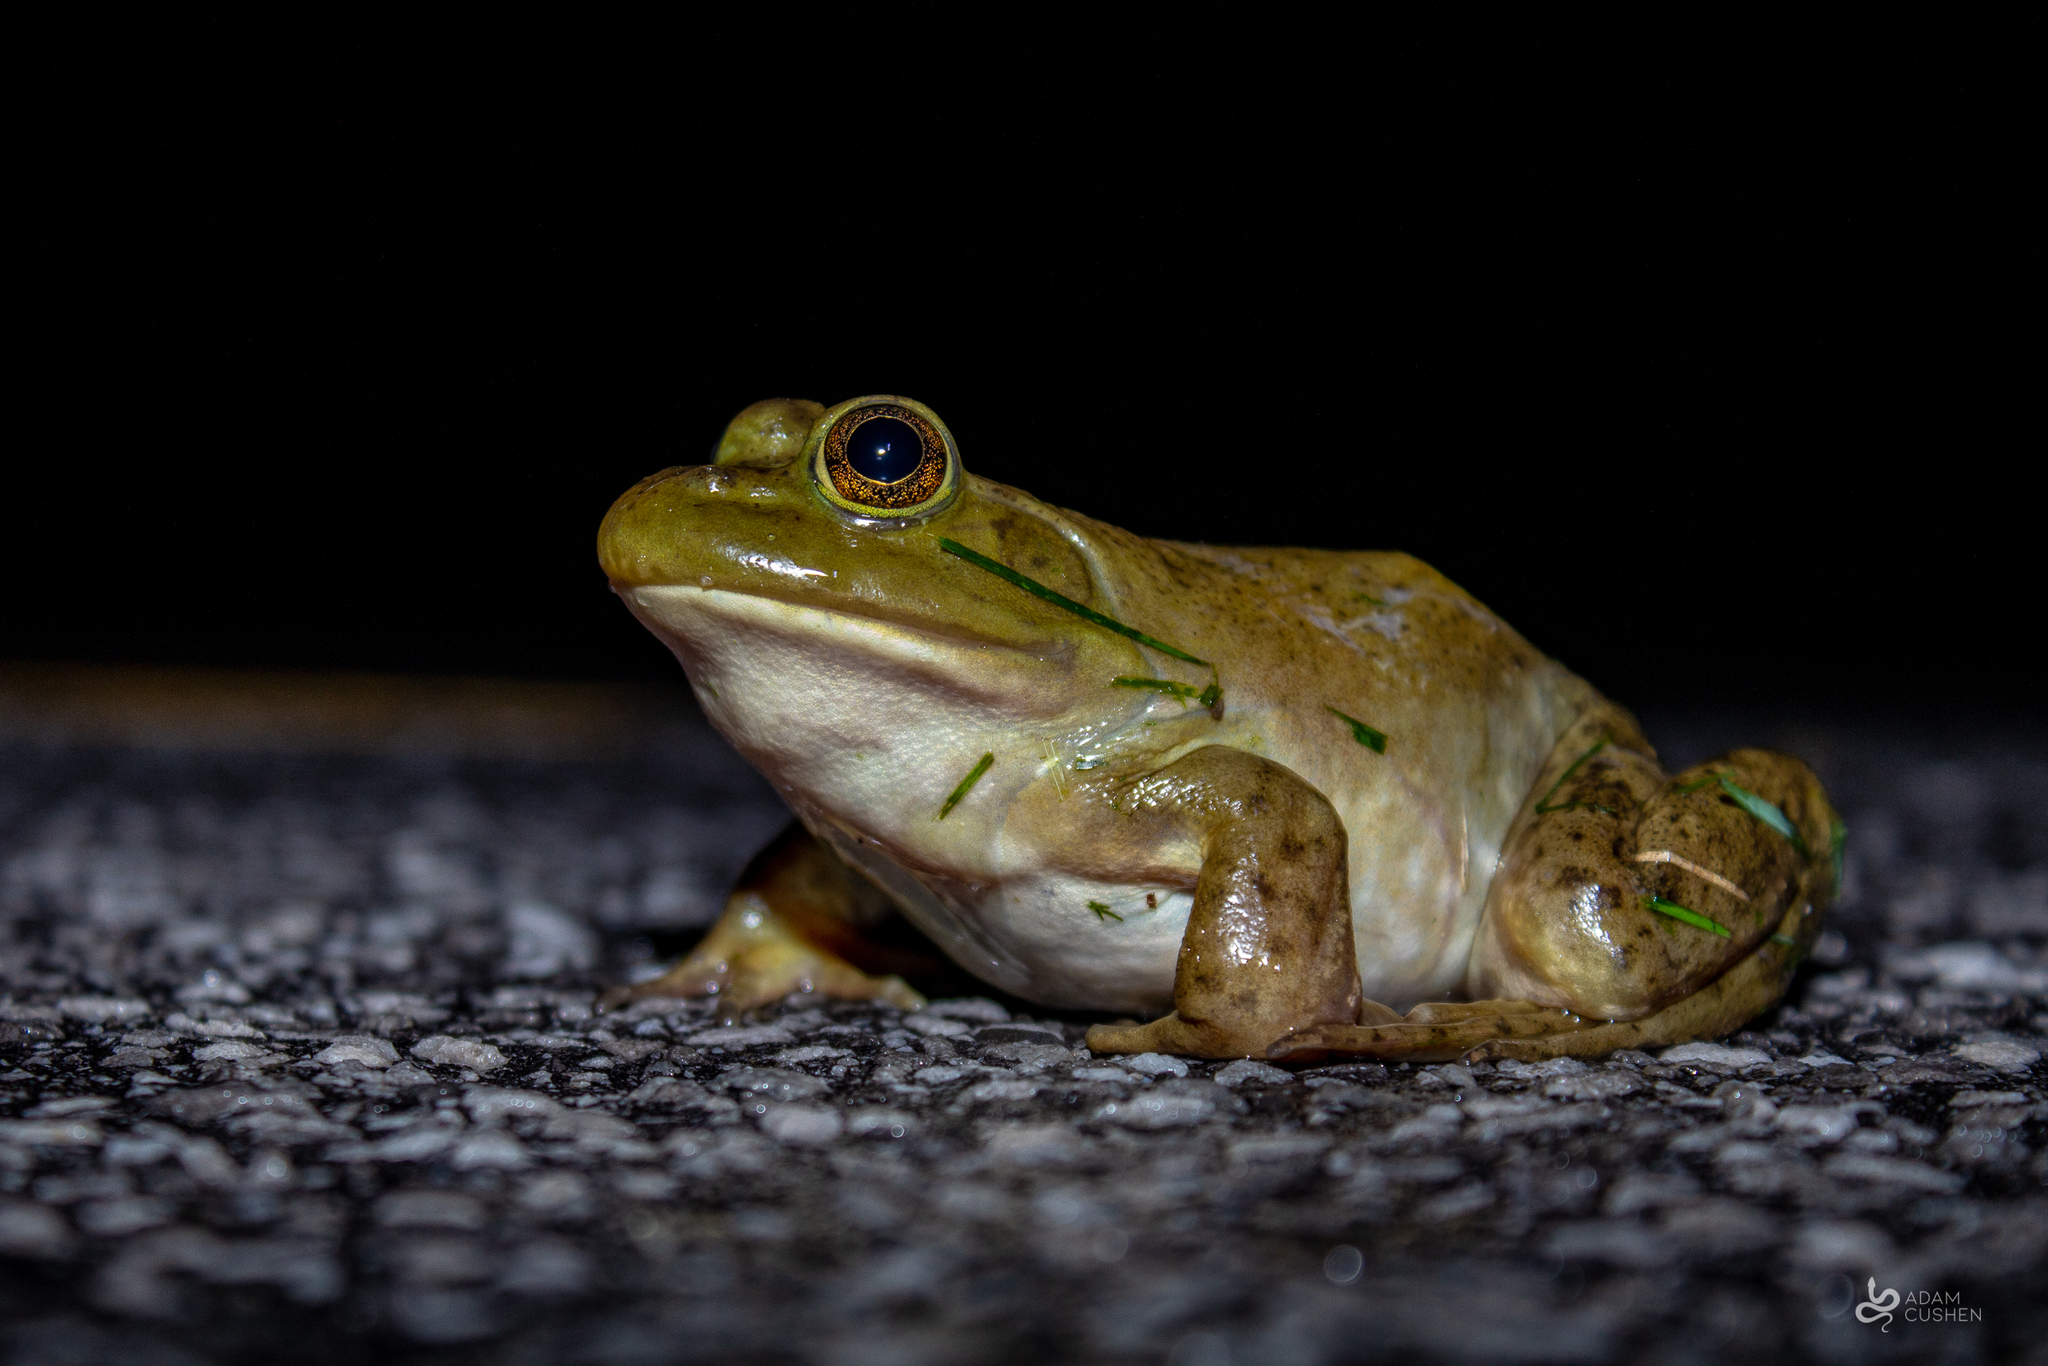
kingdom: Animalia
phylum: Chordata
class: Amphibia
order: Anura
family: Ranidae
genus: Lithobates
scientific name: Lithobates catesbeianus
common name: American bullfrog
